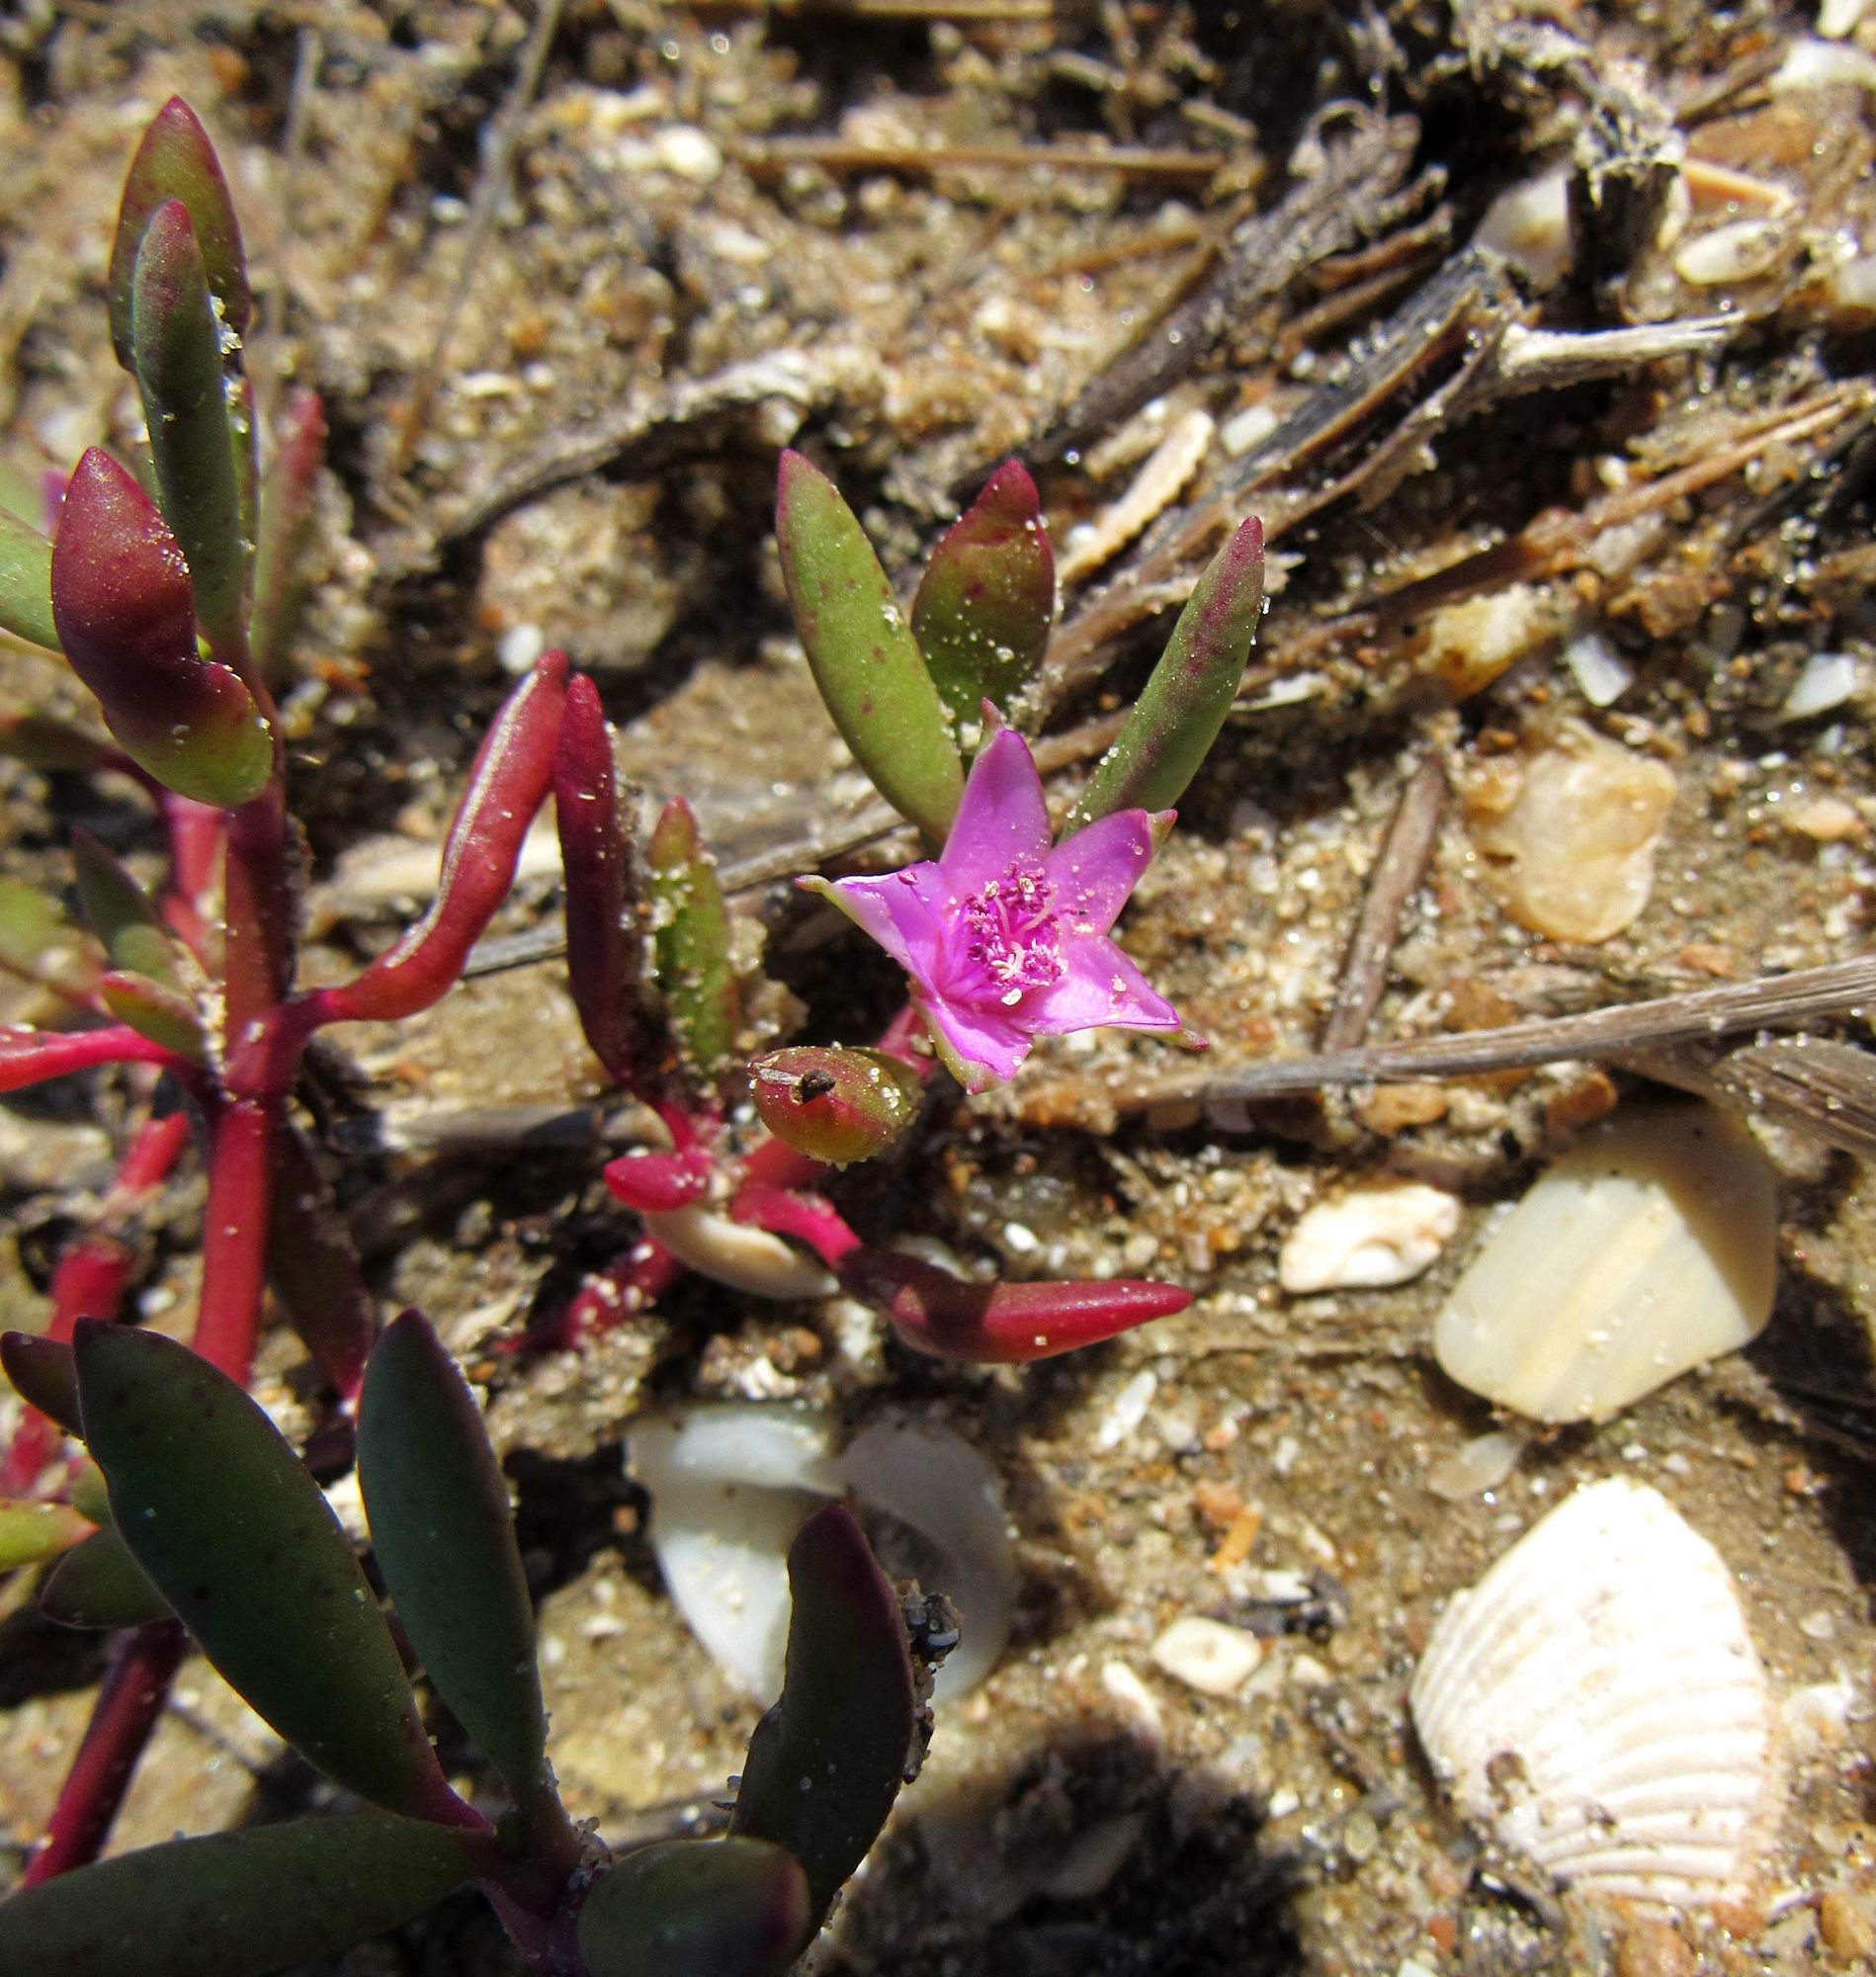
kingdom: Plantae
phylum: Tracheophyta
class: Magnoliopsida
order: Caryophyllales
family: Aizoaceae
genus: Sesuvium
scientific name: Sesuvium portulacastrum
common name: Sea-purslane
